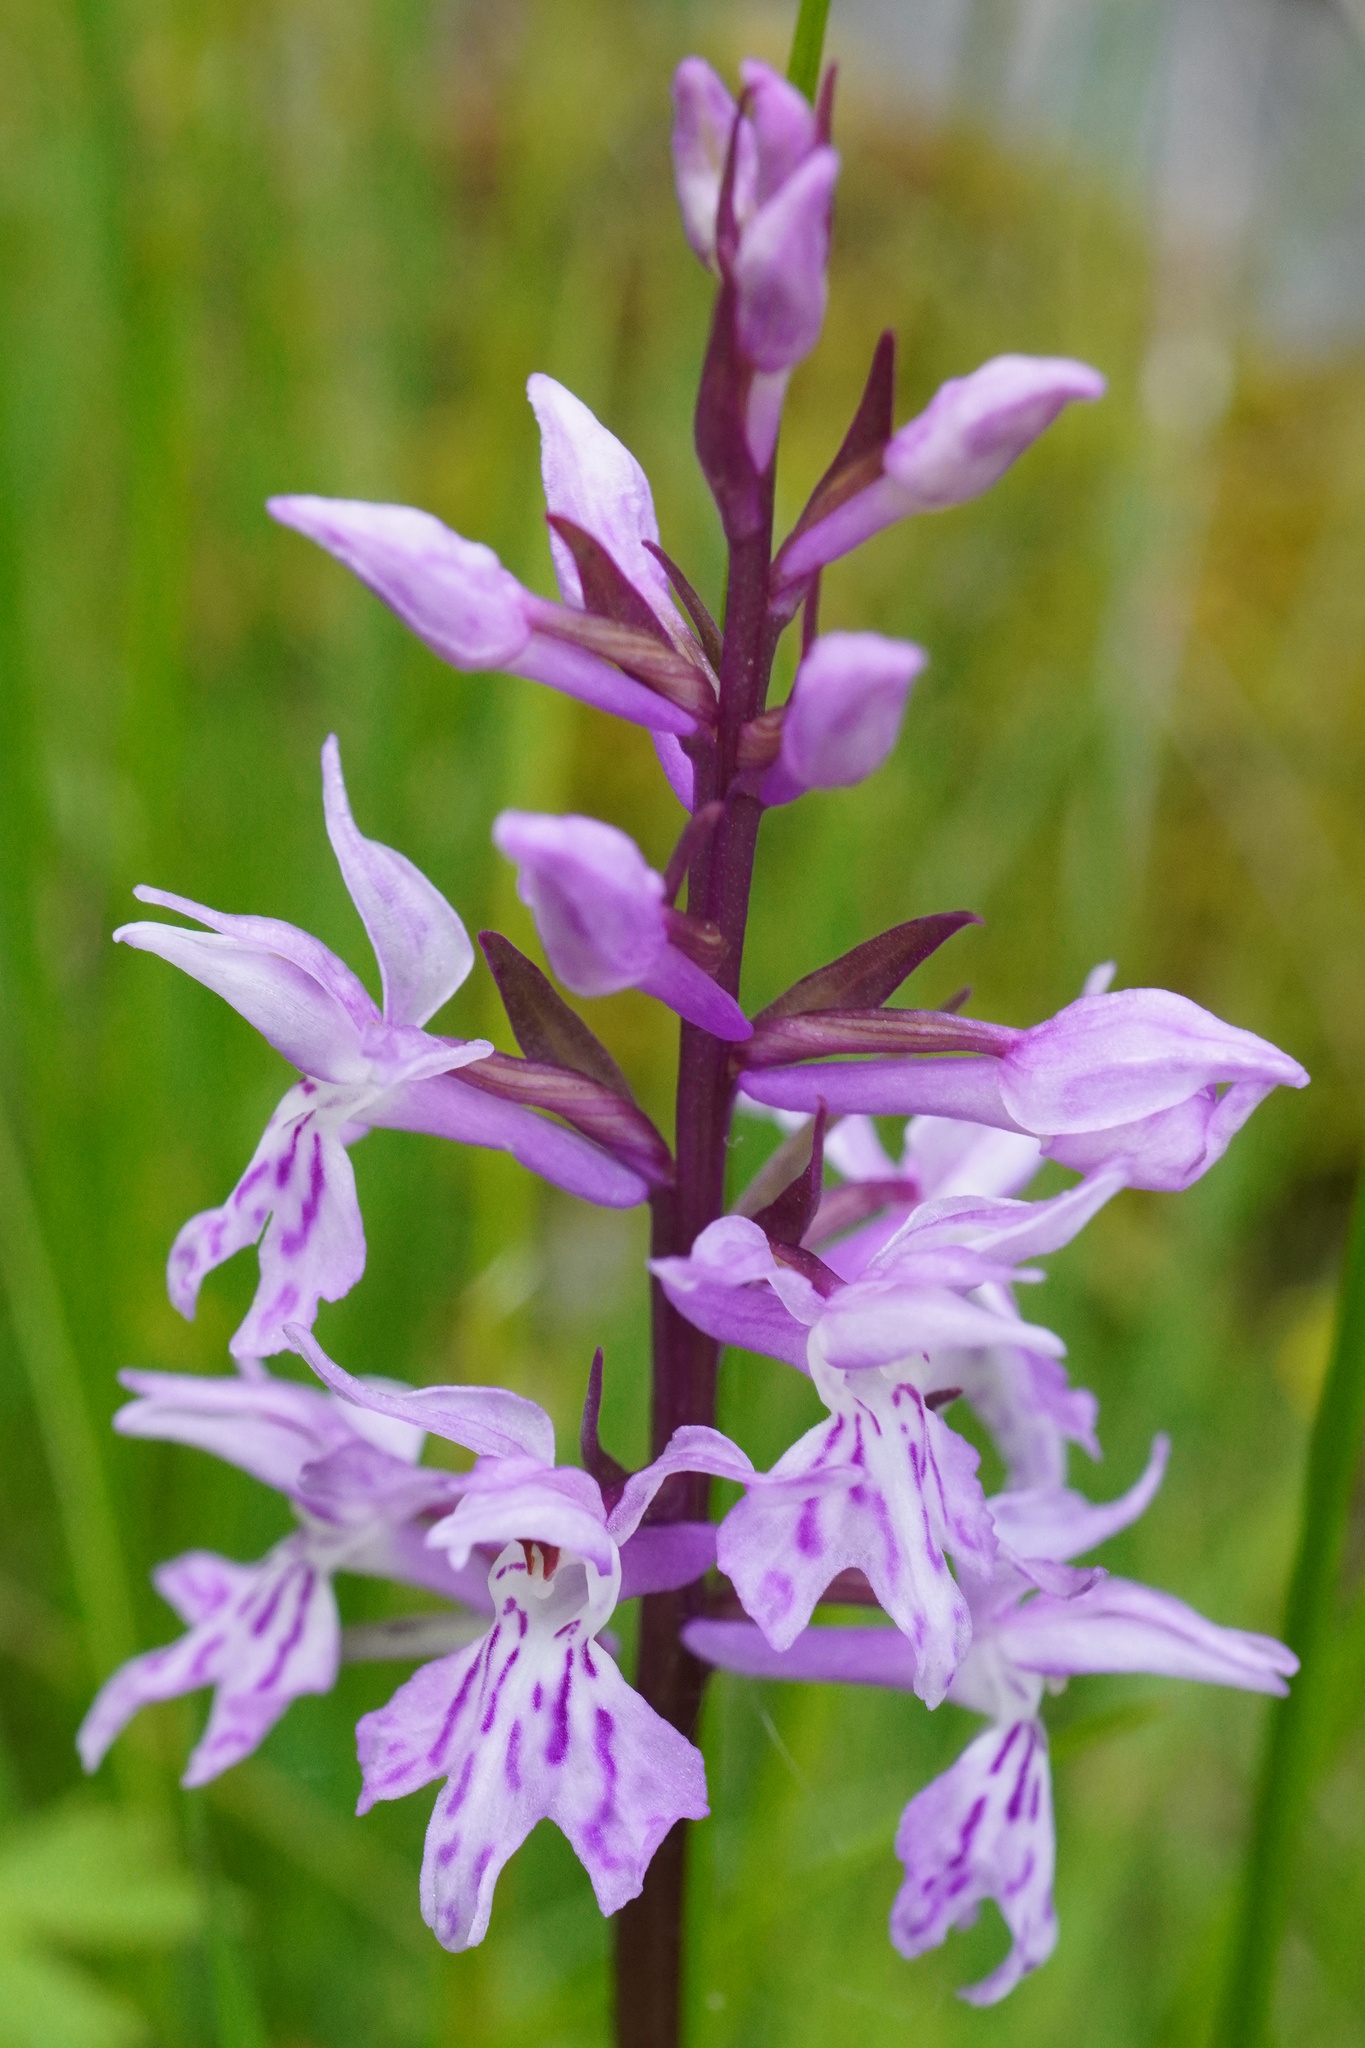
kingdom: Plantae
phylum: Tracheophyta
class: Liliopsida
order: Asparagales
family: Orchidaceae
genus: Dactylorhiza
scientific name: Dactylorhiza maculata
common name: Heath spotted-orchid
